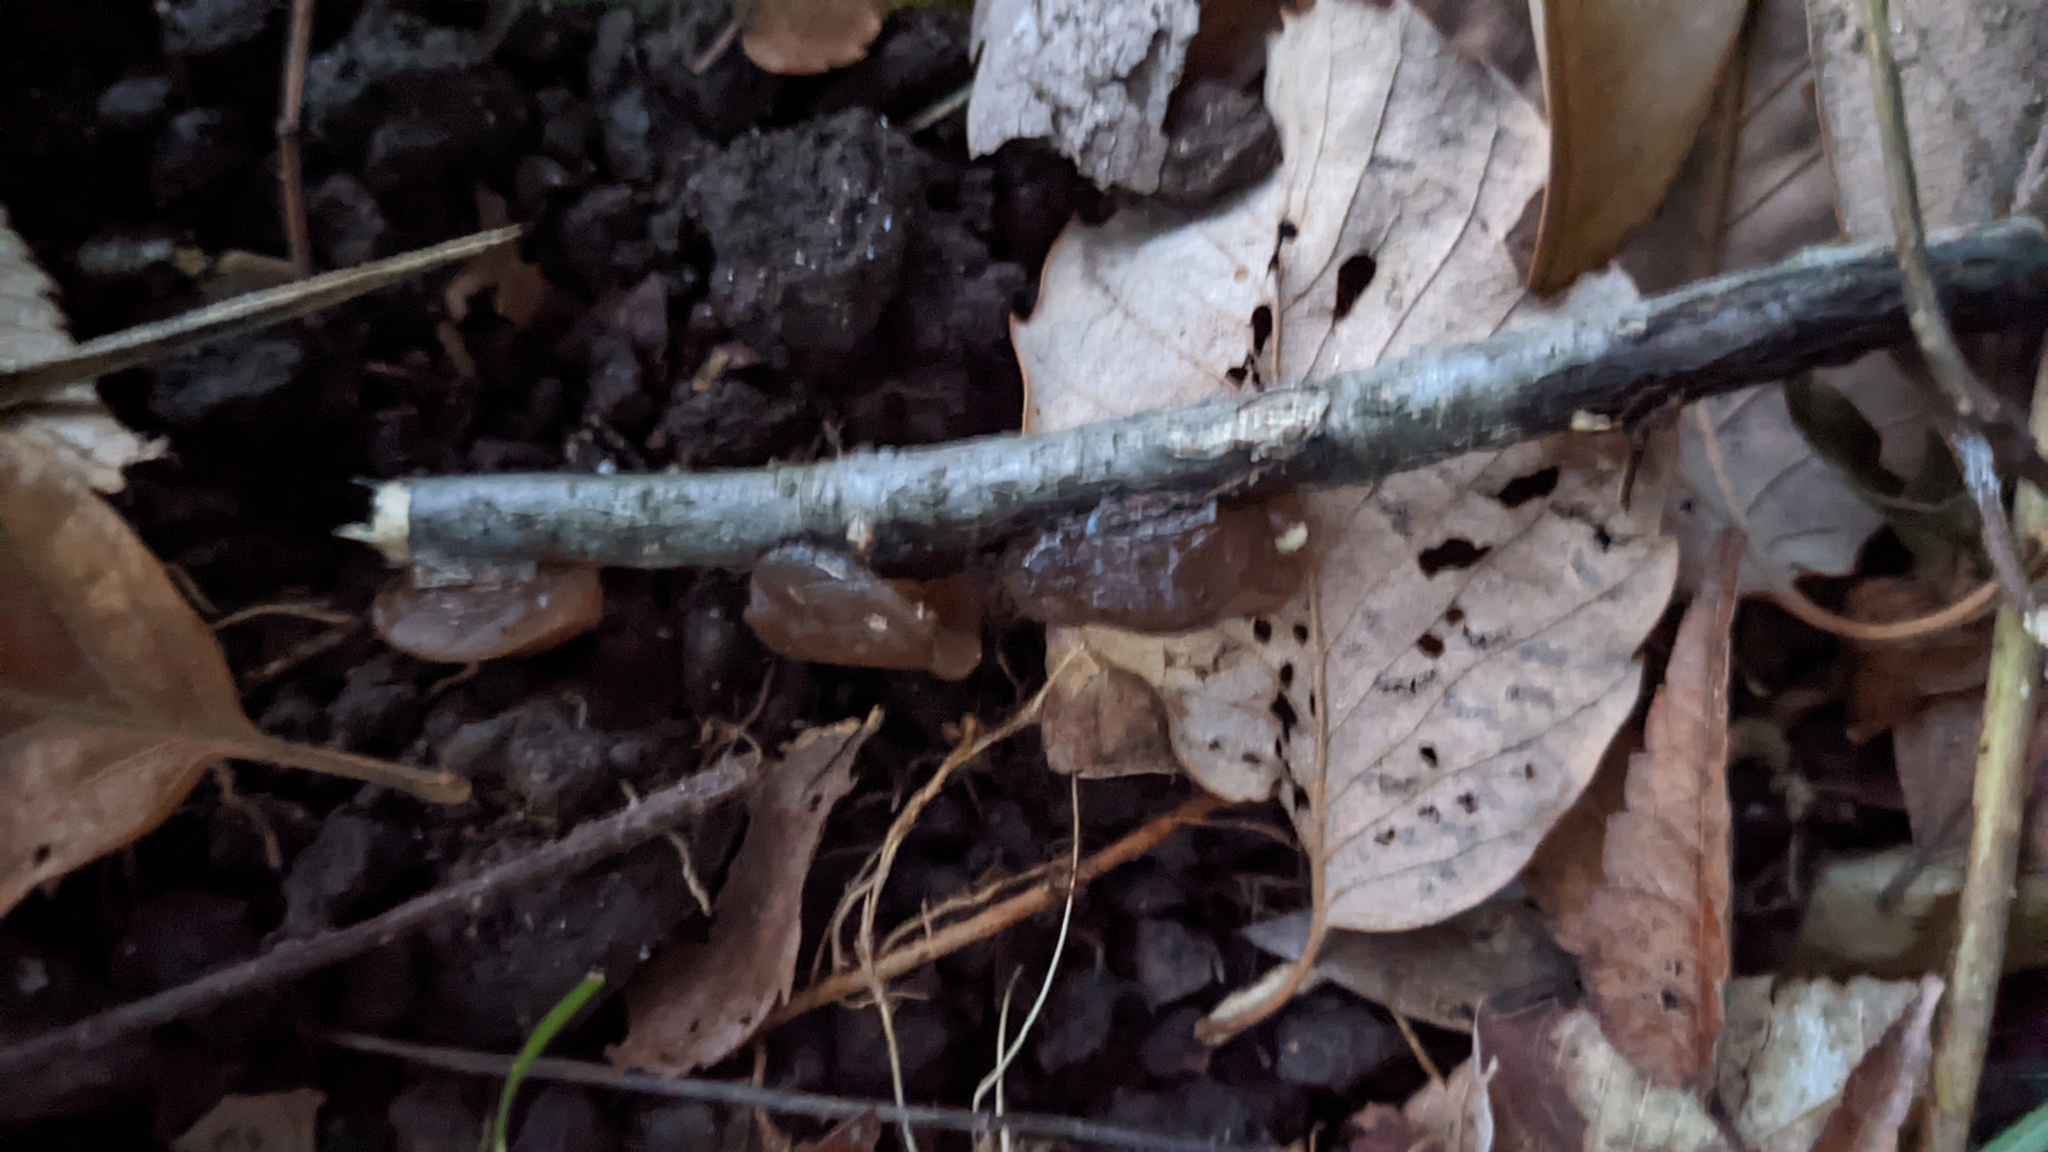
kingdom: Fungi
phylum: Basidiomycota
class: Agaricomycetes
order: Auriculariales
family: Auriculariaceae
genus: Exidia
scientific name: Exidia uvapassa
